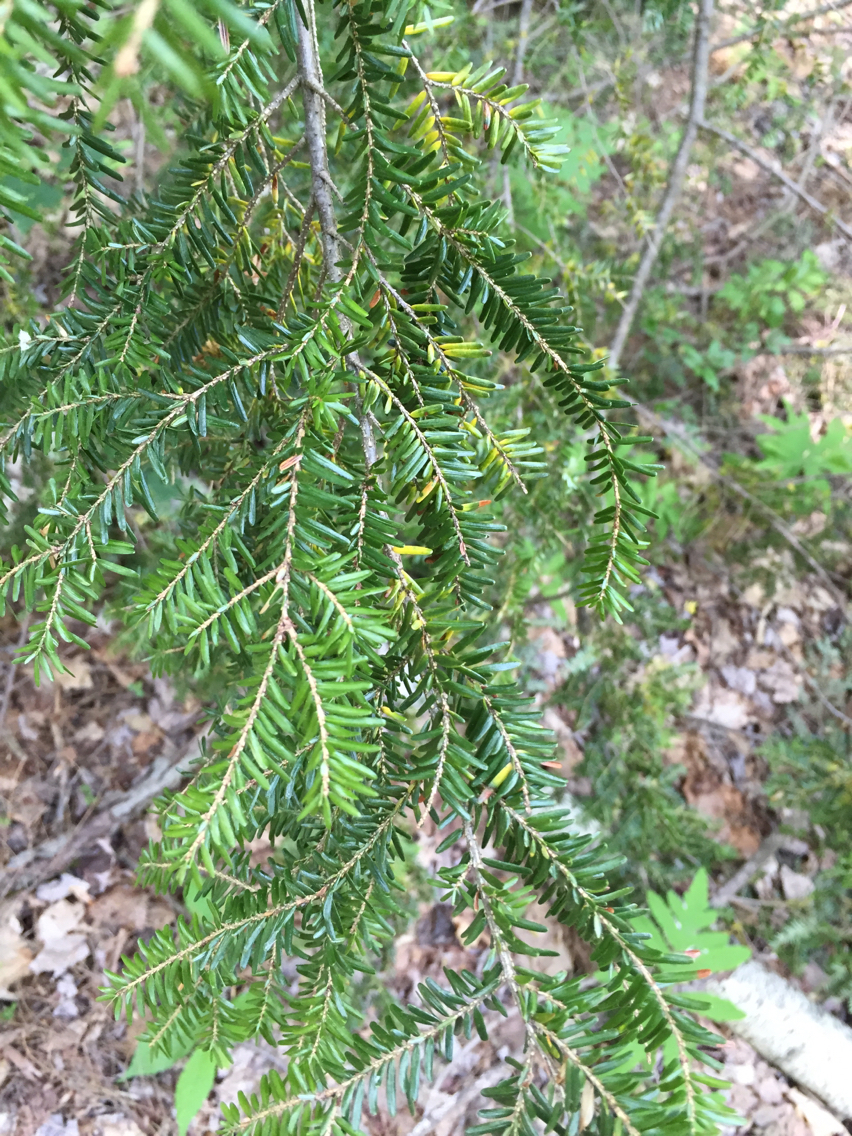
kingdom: Plantae
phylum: Tracheophyta
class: Pinopsida
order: Pinales
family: Pinaceae
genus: Tsuga
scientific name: Tsuga canadensis
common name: Eastern hemlock
